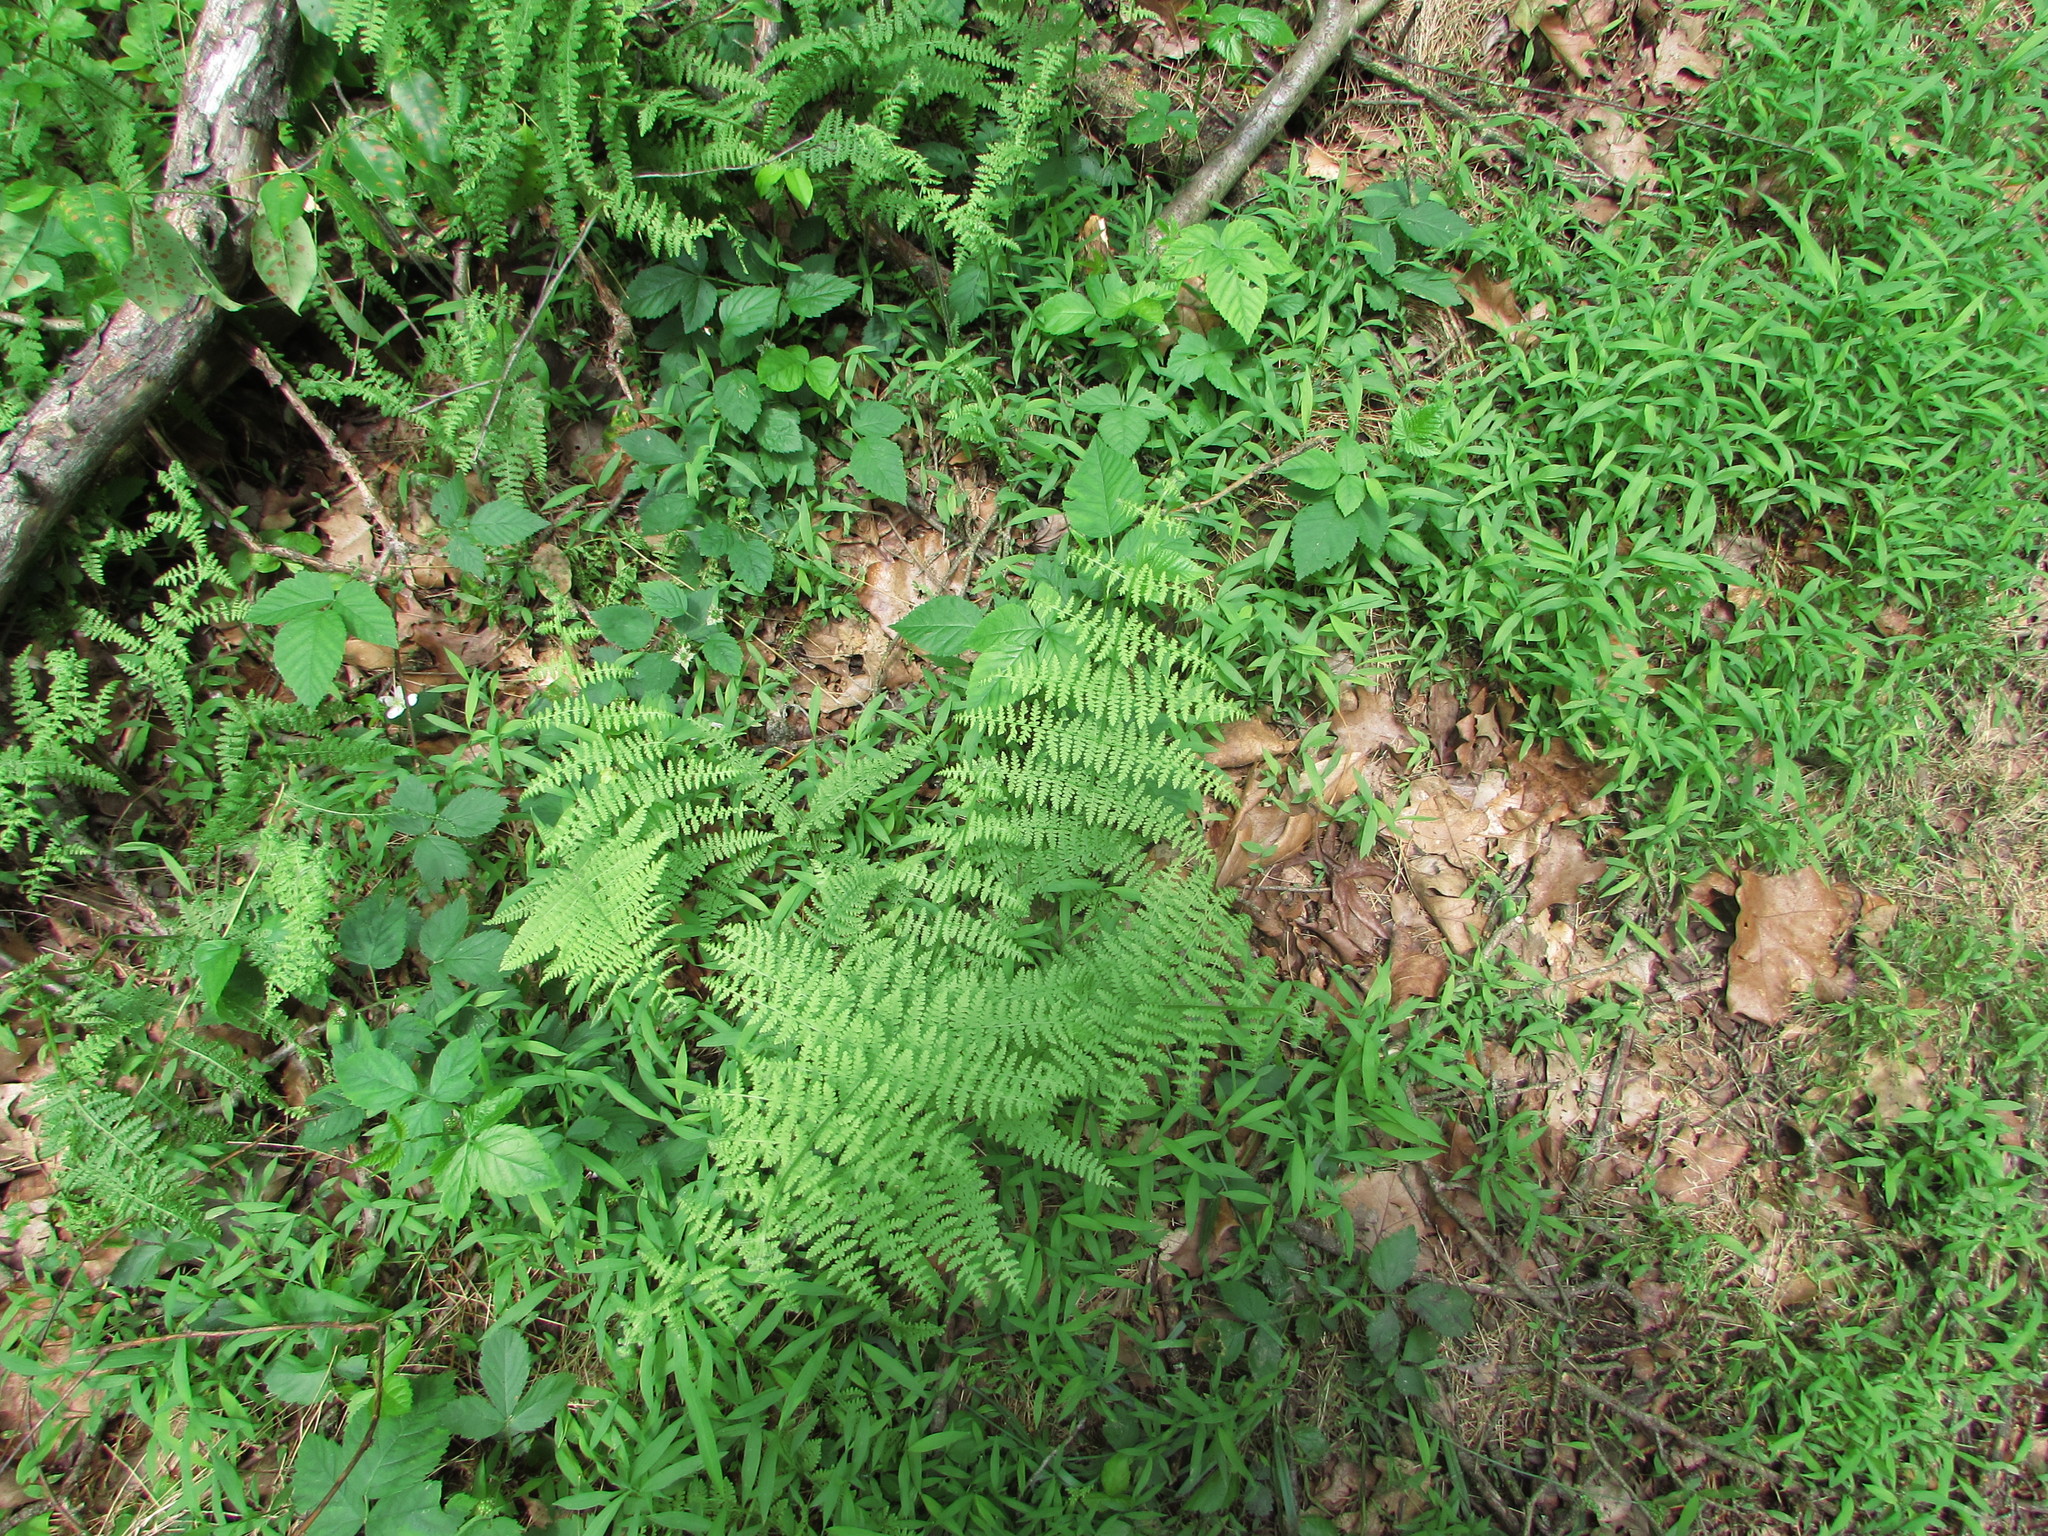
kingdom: Plantae
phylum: Tracheophyta
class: Polypodiopsida
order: Polypodiales
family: Dennstaedtiaceae
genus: Sitobolium
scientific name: Sitobolium punctilobum
